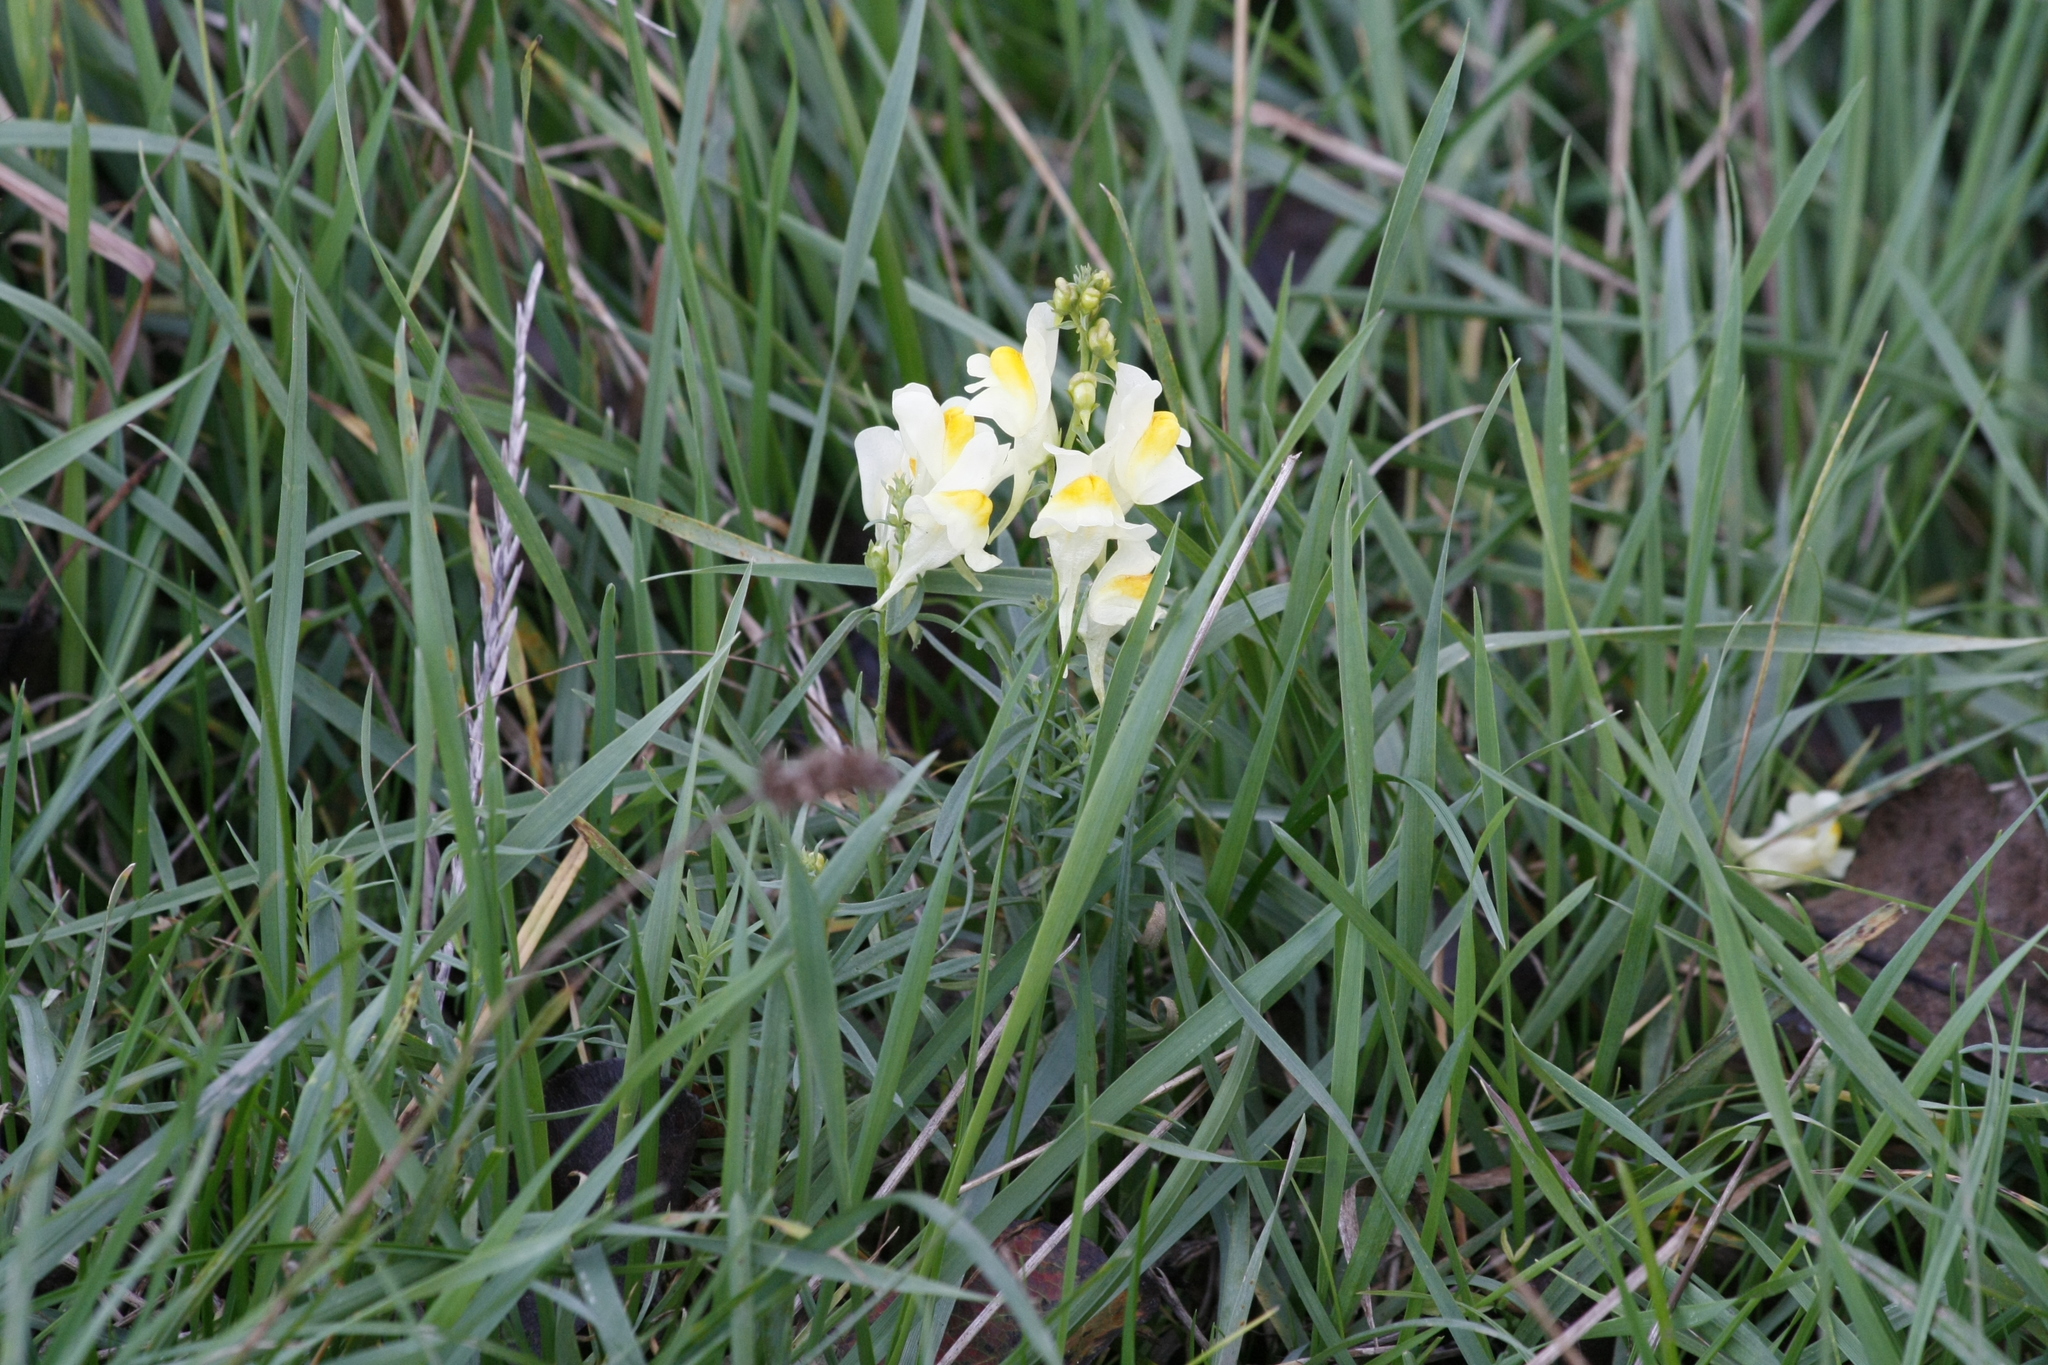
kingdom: Plantae
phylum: Tracheophyta
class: Magnoliopsida
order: Lamiales
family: Plantaginaceae
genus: Linaria
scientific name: Linaria vulgaris
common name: Butter and eggs
